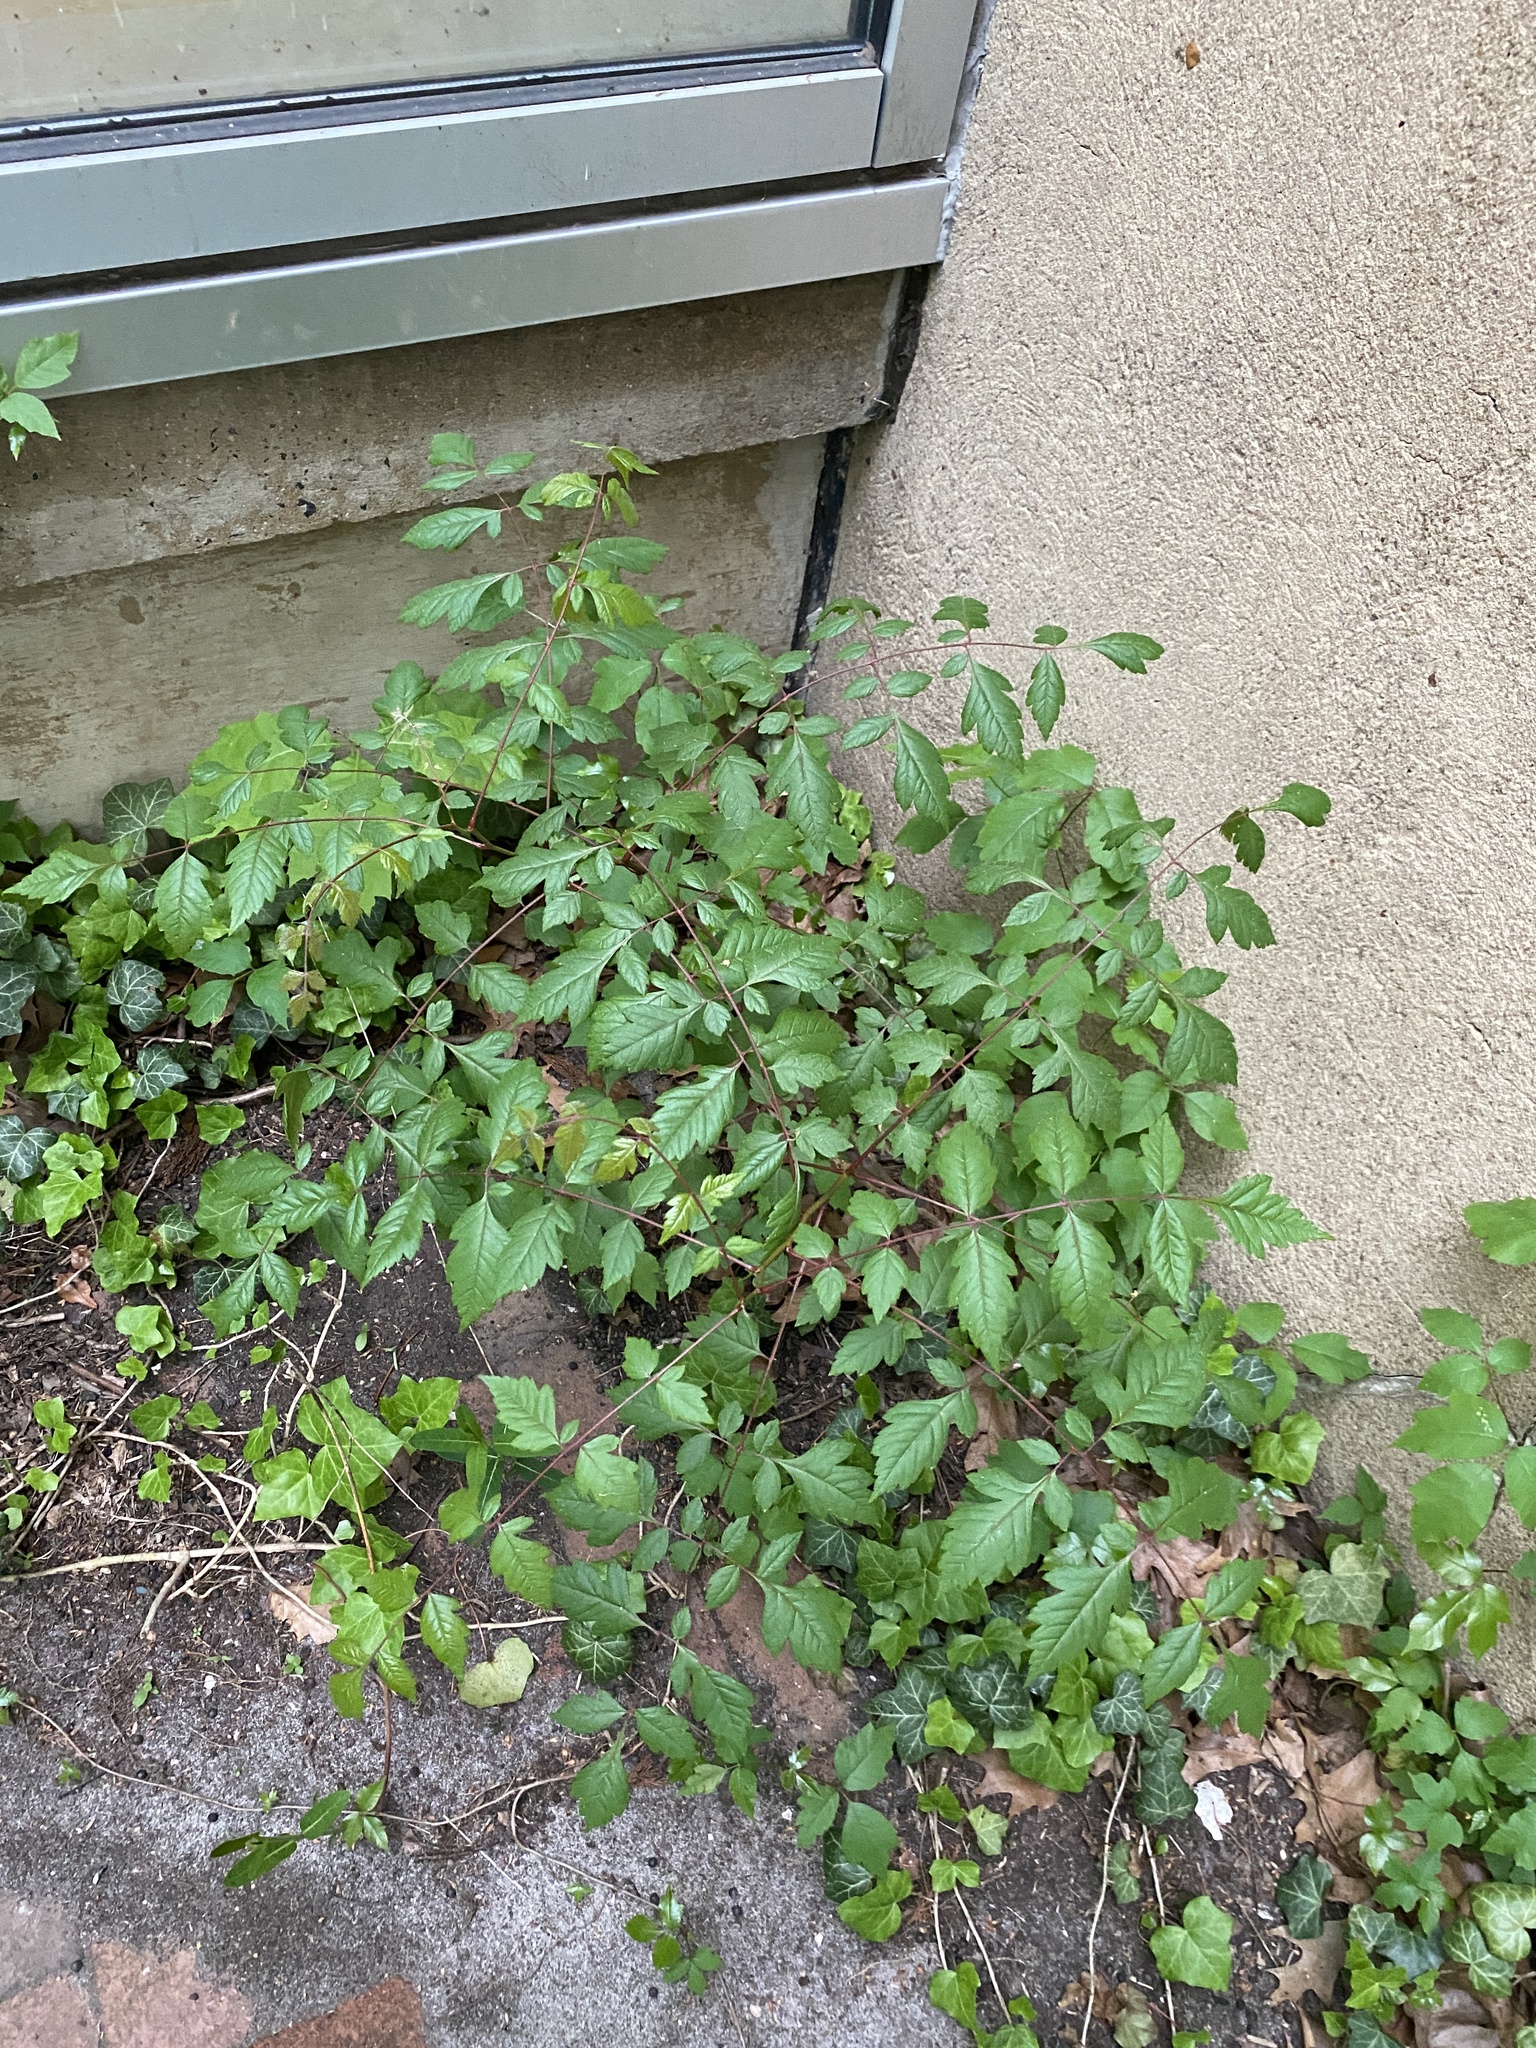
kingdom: Plantae
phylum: Tracheophyta
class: Magnoliopsida
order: Sapindales
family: Sapindaceae
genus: Koelreuteria
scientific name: Koelreuteria paniculata
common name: Pride-of-india
